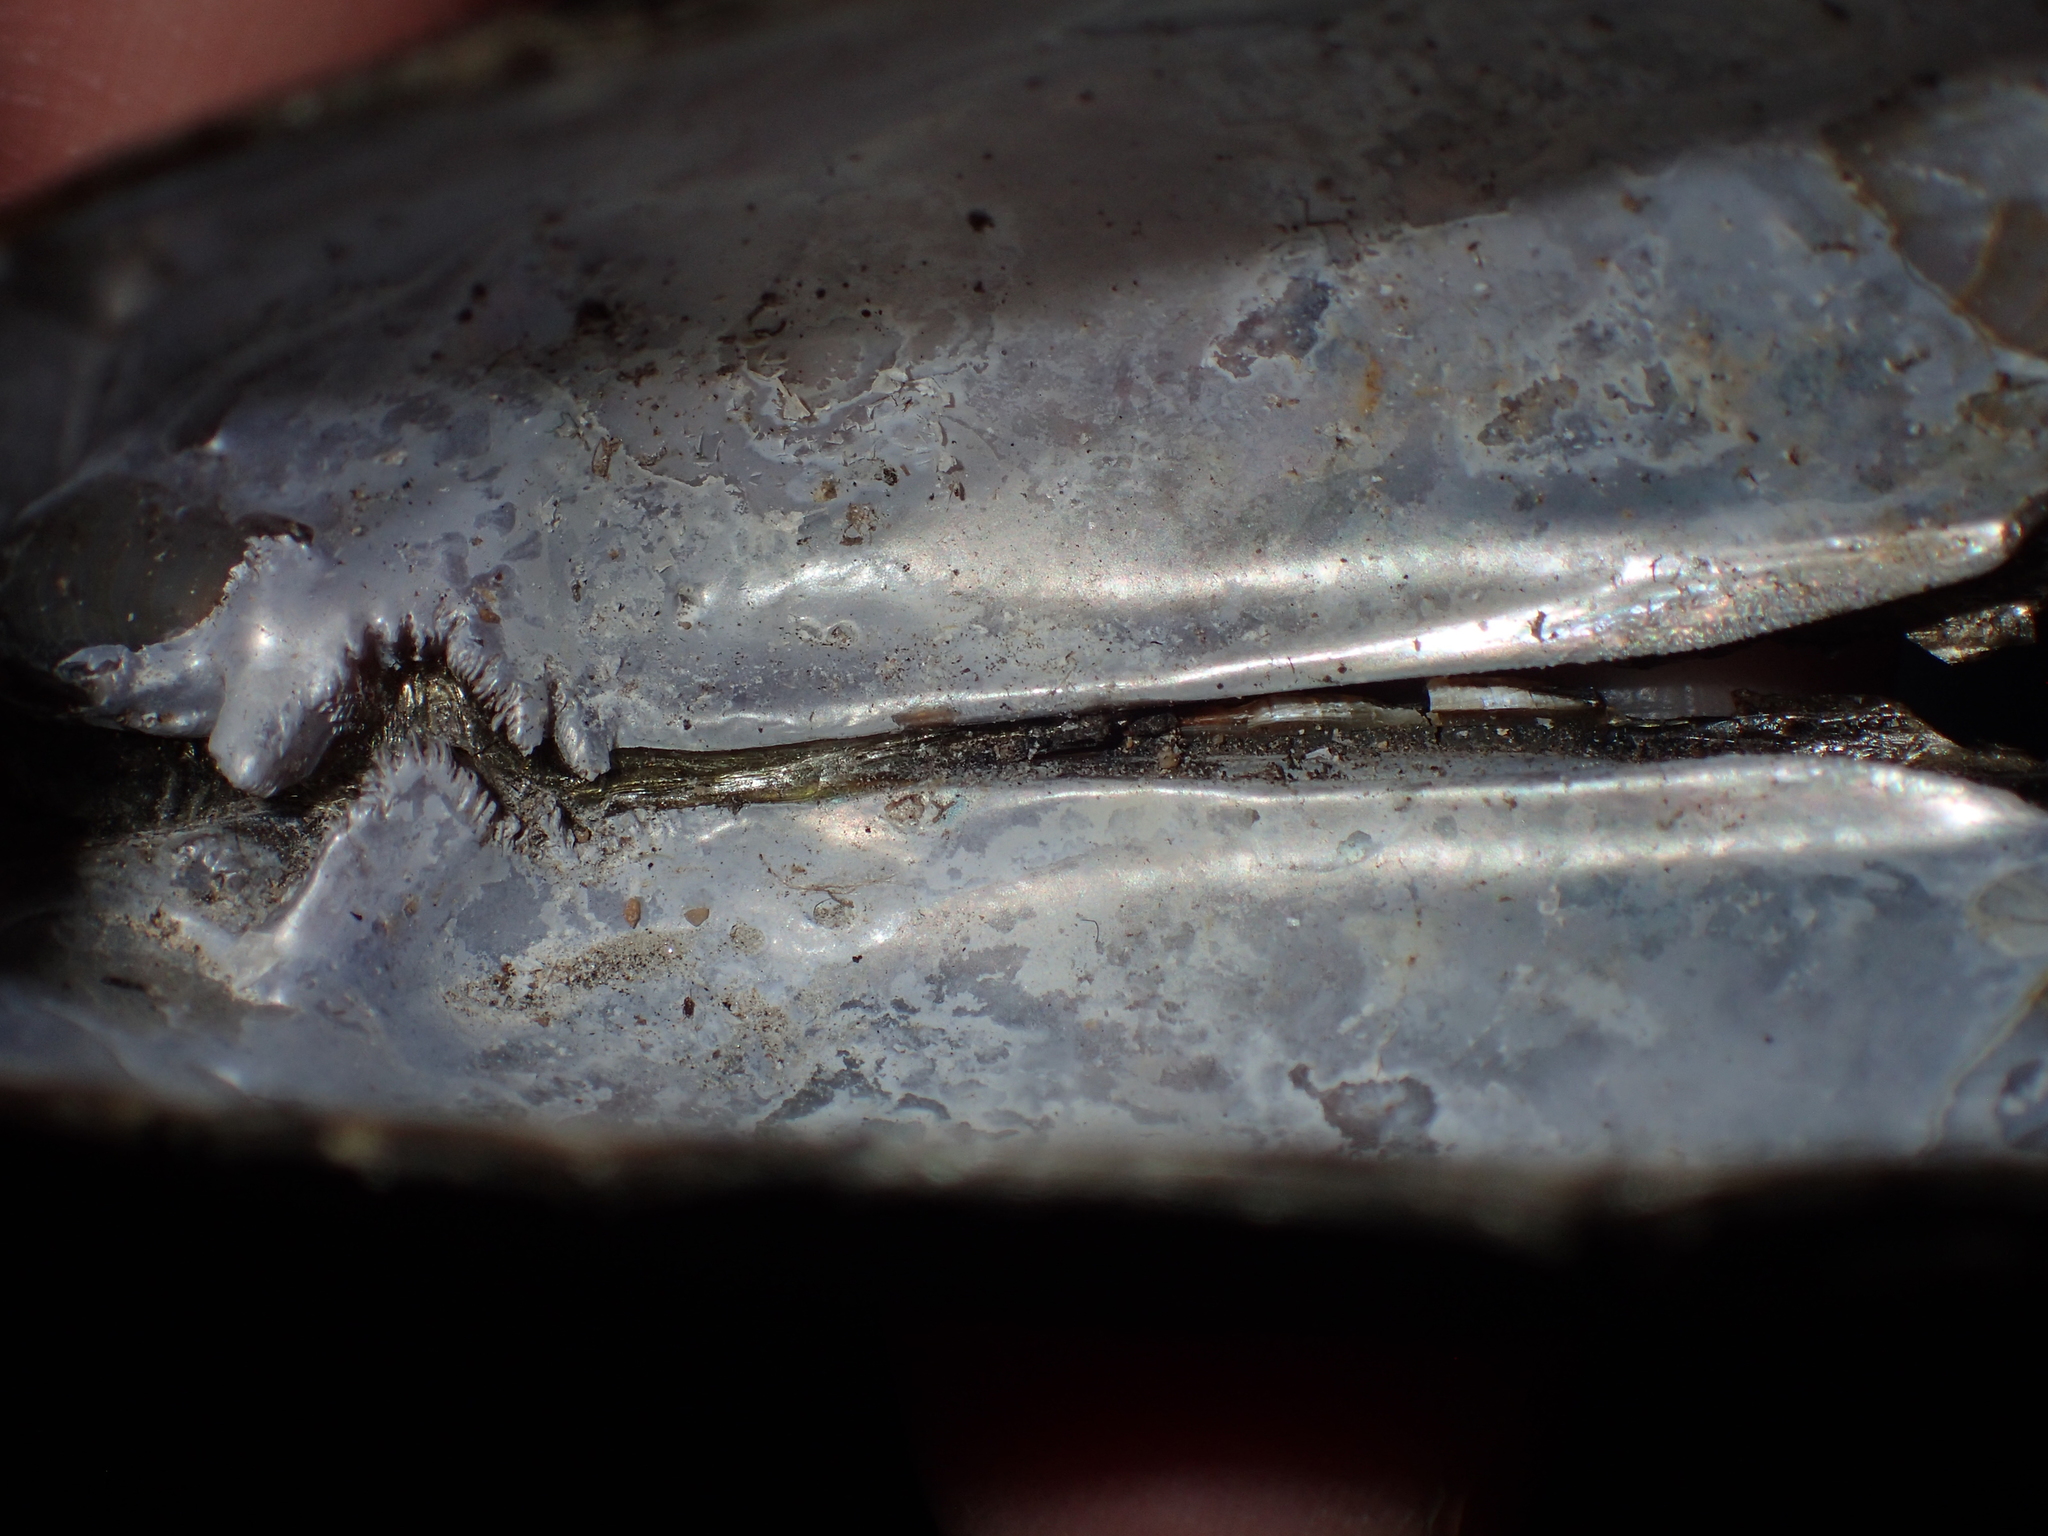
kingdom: Animalia
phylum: Mollusca
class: Bivalvia
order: Unionida
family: Unionidae
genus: Elliptio
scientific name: Elliptio complanata
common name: Eastern elliptio
